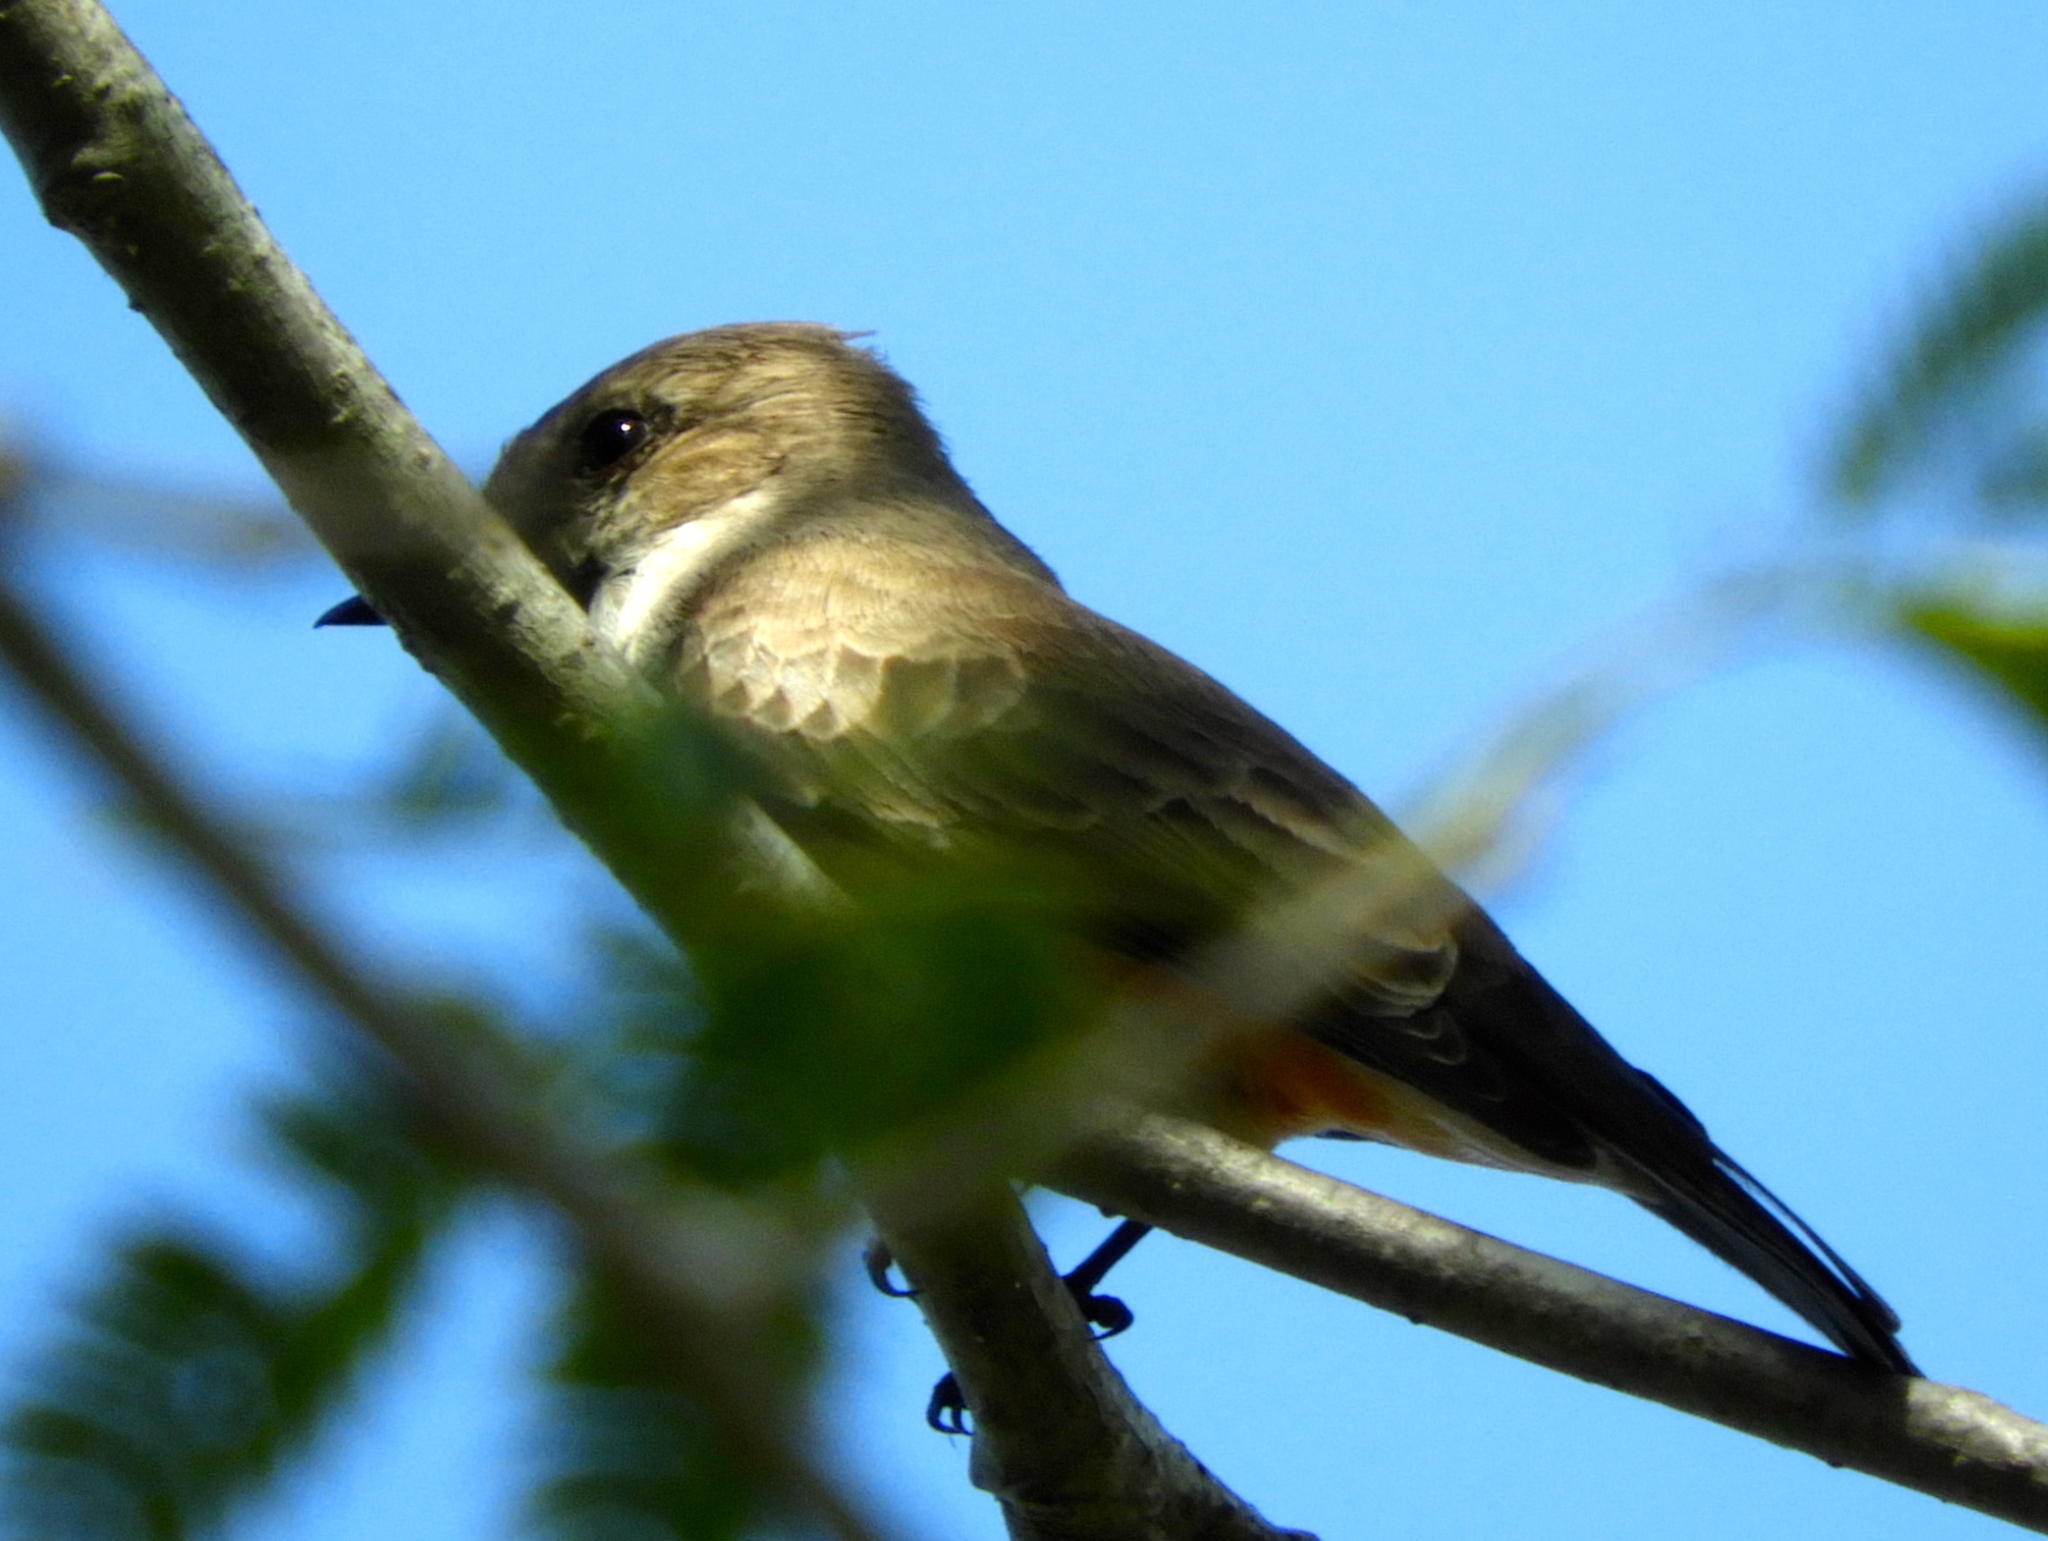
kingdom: Animalia
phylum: Chordata
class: Aves
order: Passeriformes
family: Tyrannidae
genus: Pyrocephalus
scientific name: Pyrocephalus rubinus
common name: Vermilion flycatcher
